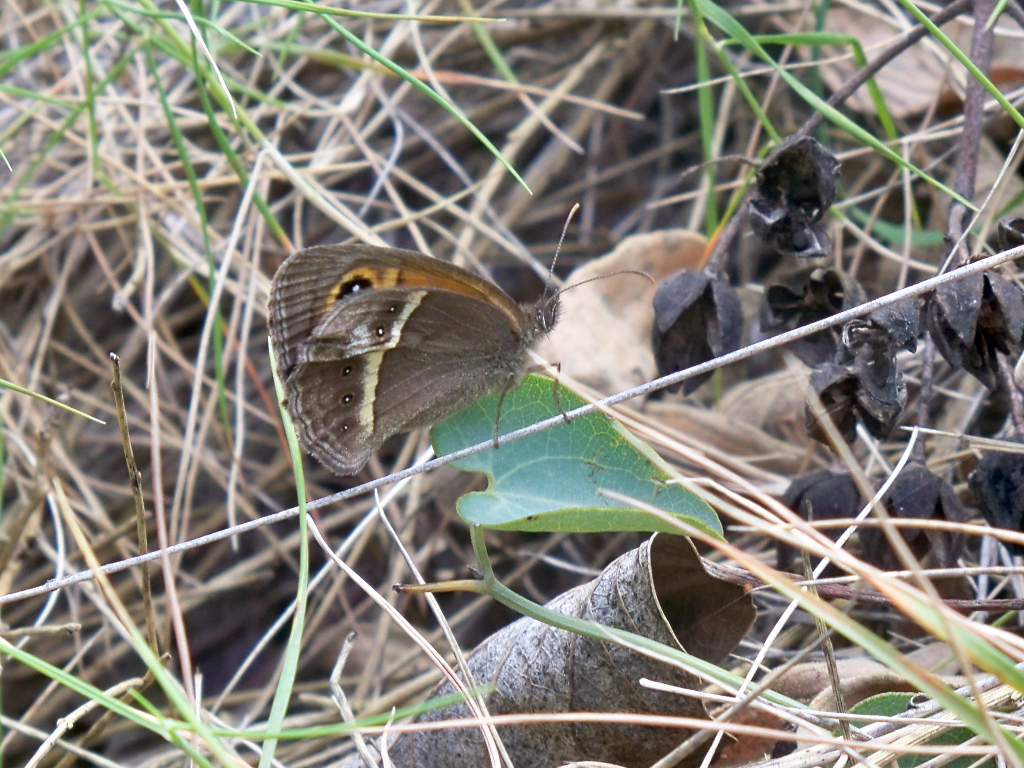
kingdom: Animalia
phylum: Arthropoda
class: Insecta
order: Lepidoptera
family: Nymphalidae
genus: Pyronia
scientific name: Pyronia bathseba
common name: Spanish gatekeeper
